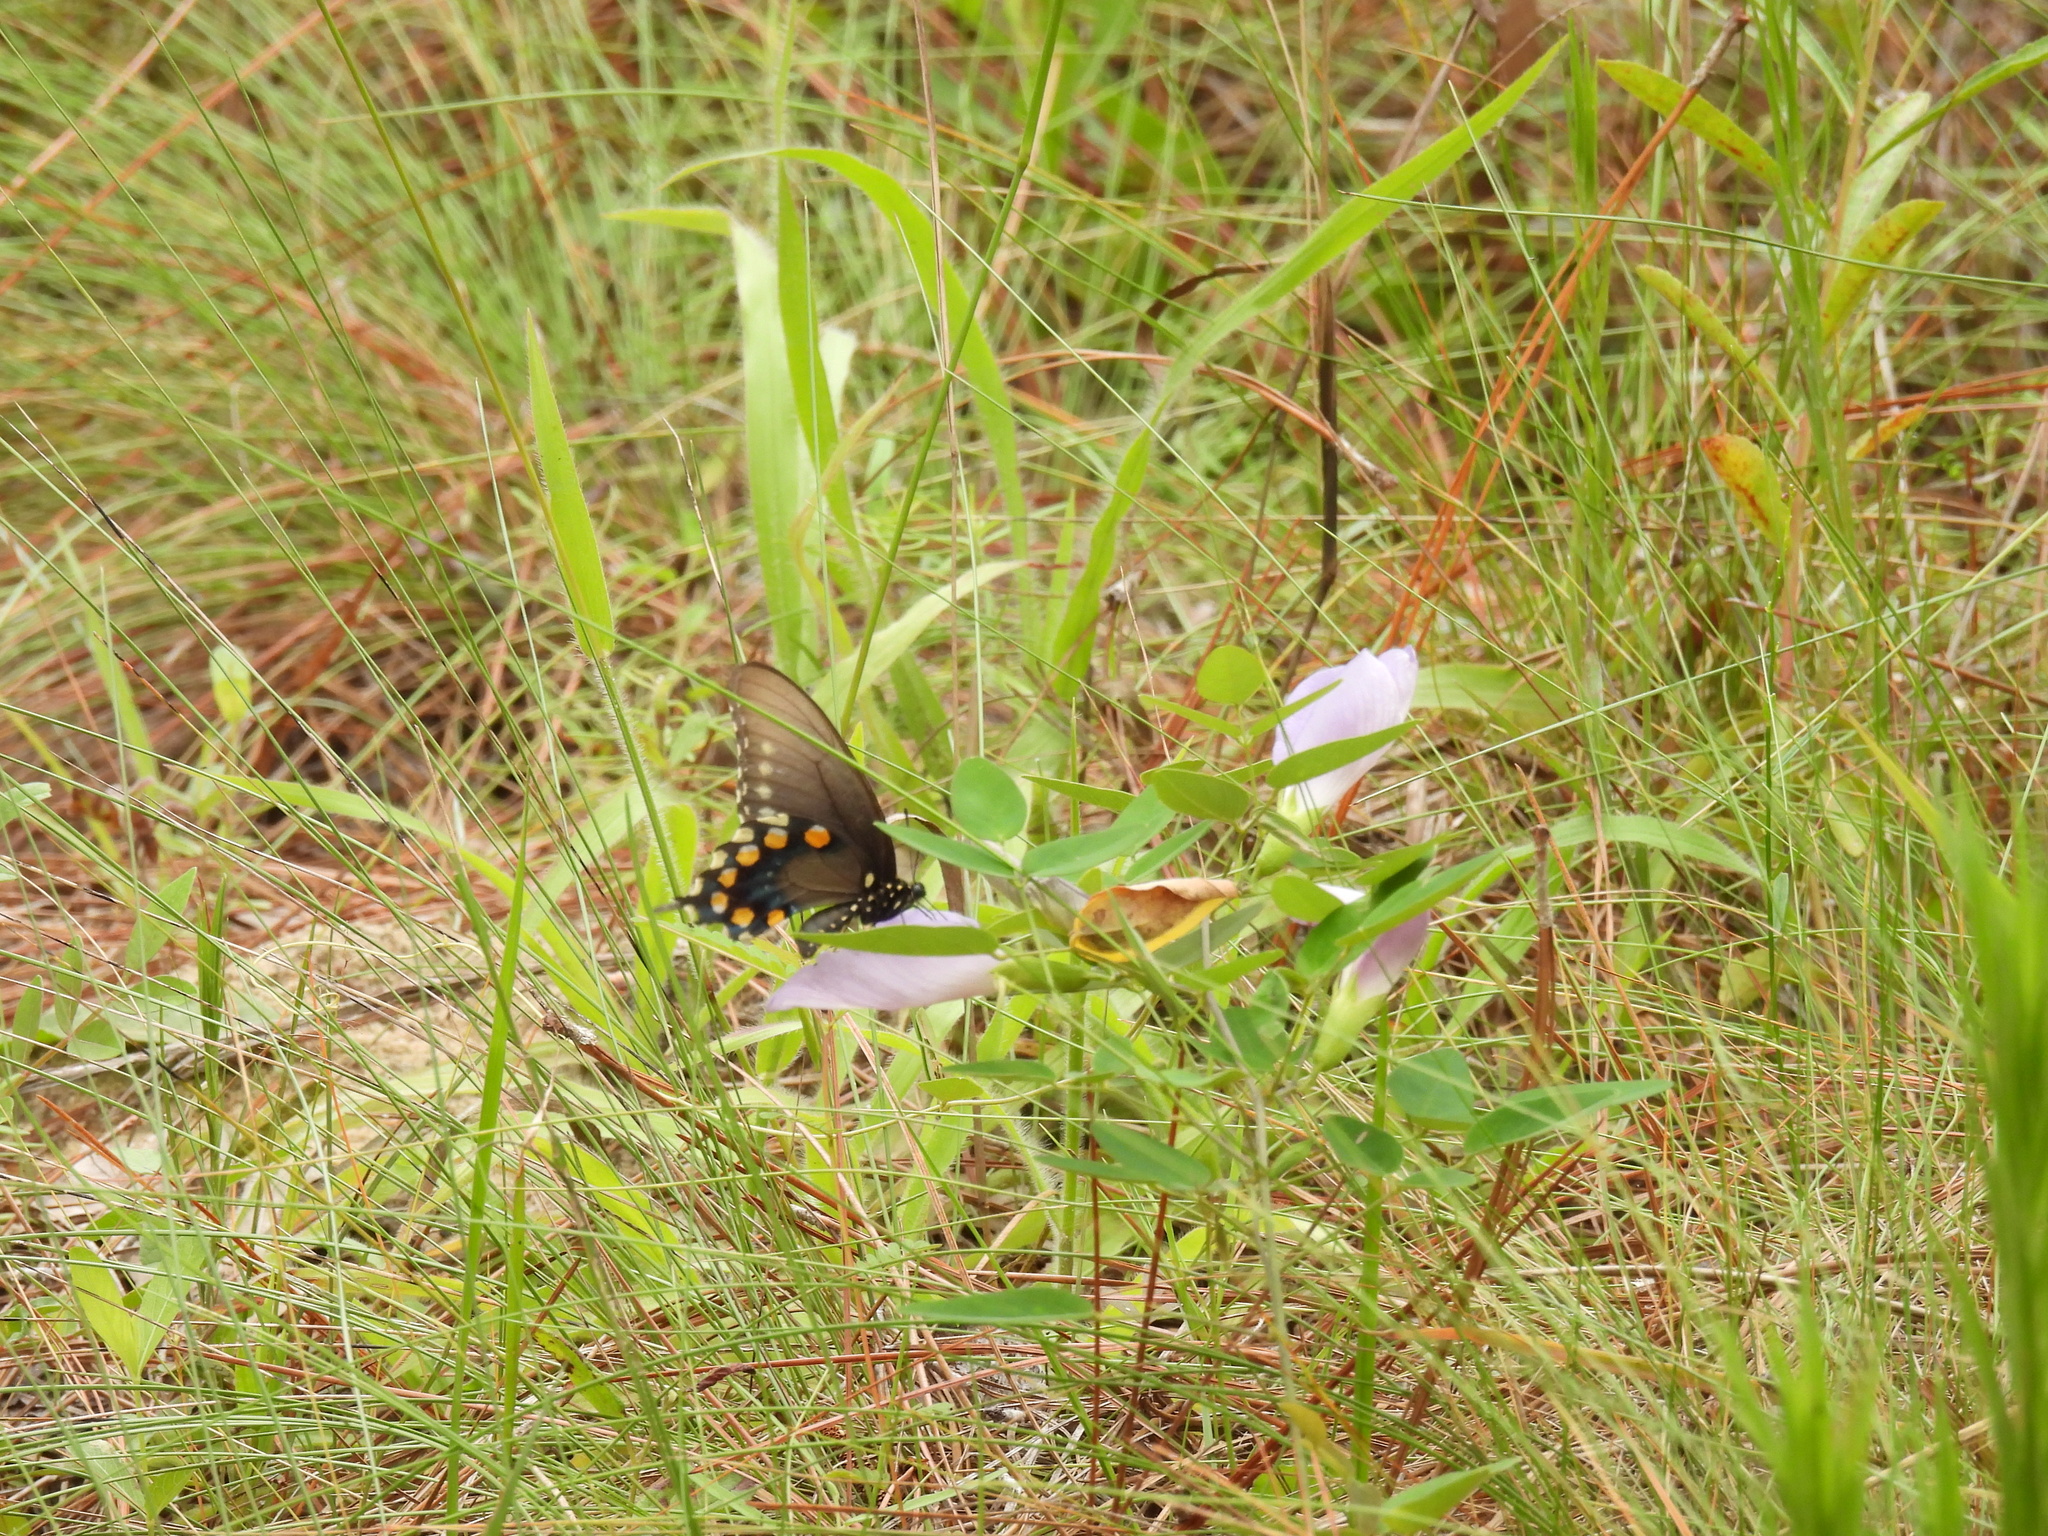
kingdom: Animalia
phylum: Arthropoda
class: Insecta
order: Lepidoptera
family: Papilionidae
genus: Battus
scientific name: Battus philenor
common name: Pipevine swallowtail
